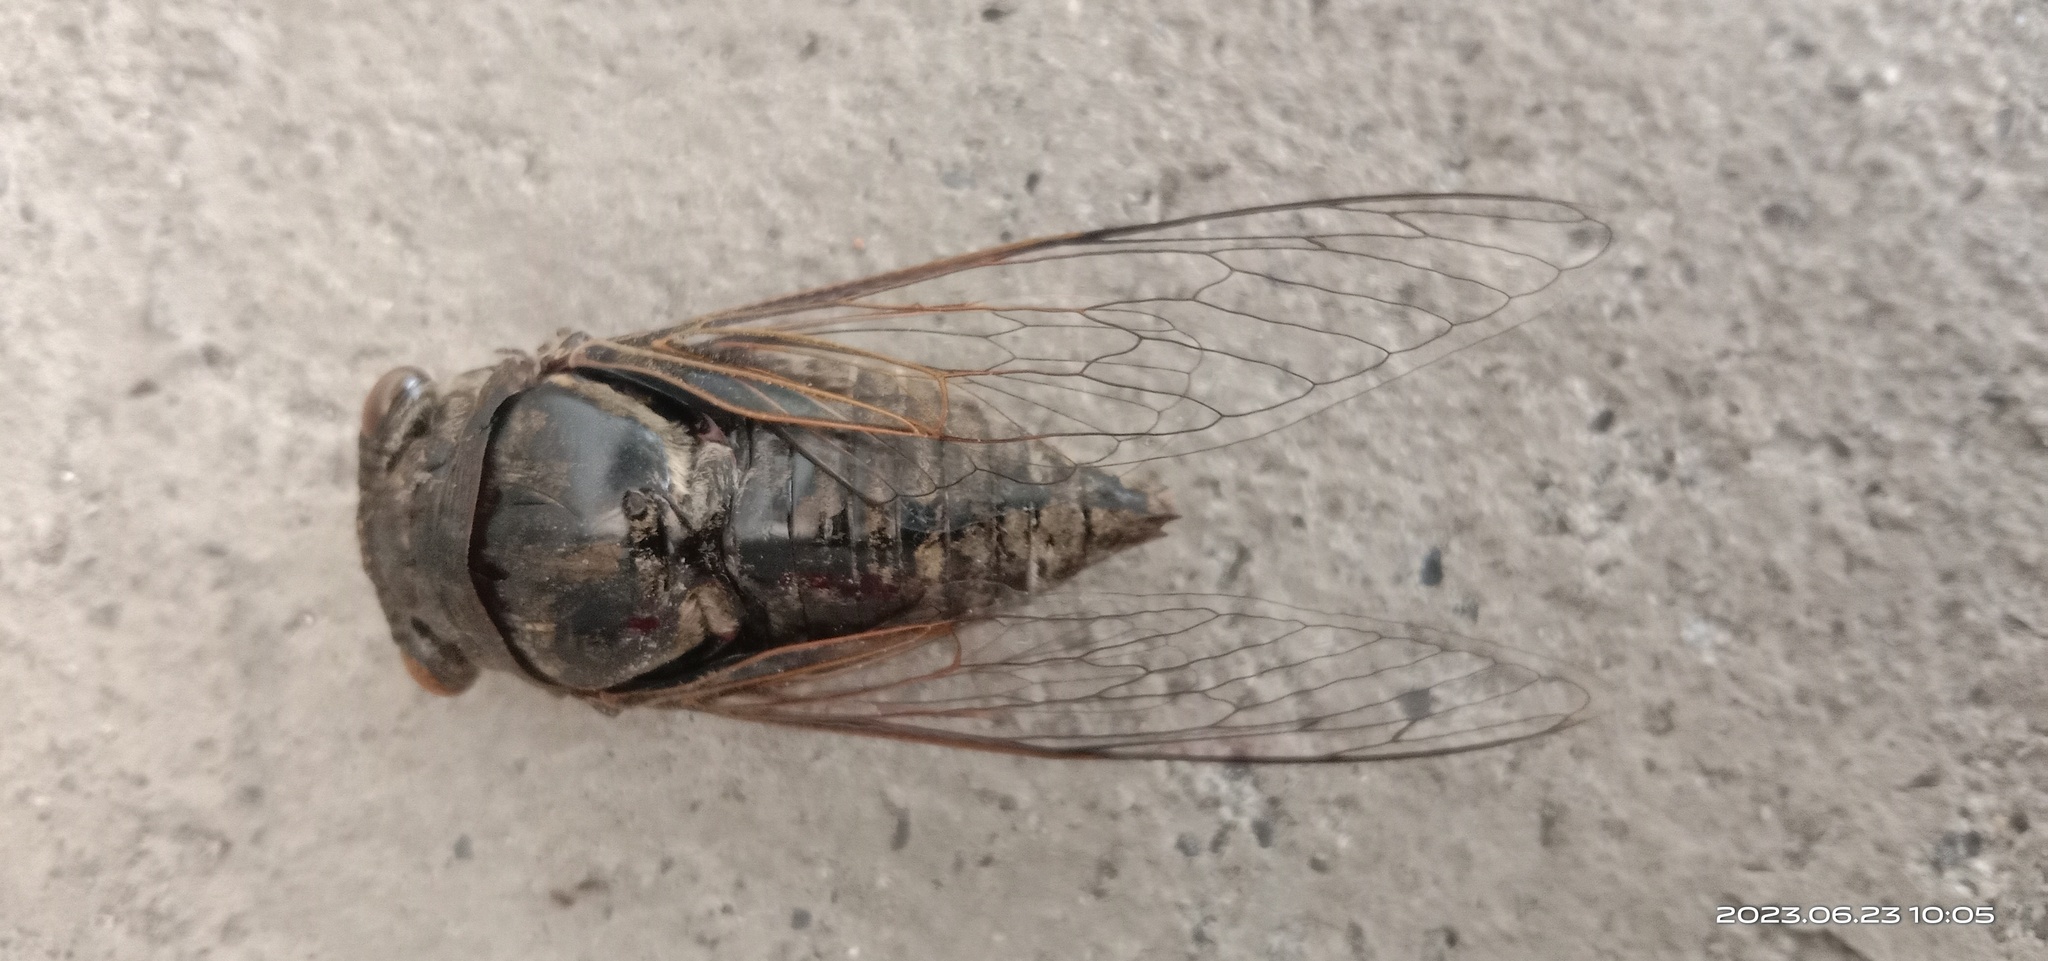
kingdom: Animalia
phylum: Arthropoda
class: Insecta
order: Hemiptera
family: Cicadidae
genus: Cryptotympana
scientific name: Cryptotympana takasagona
